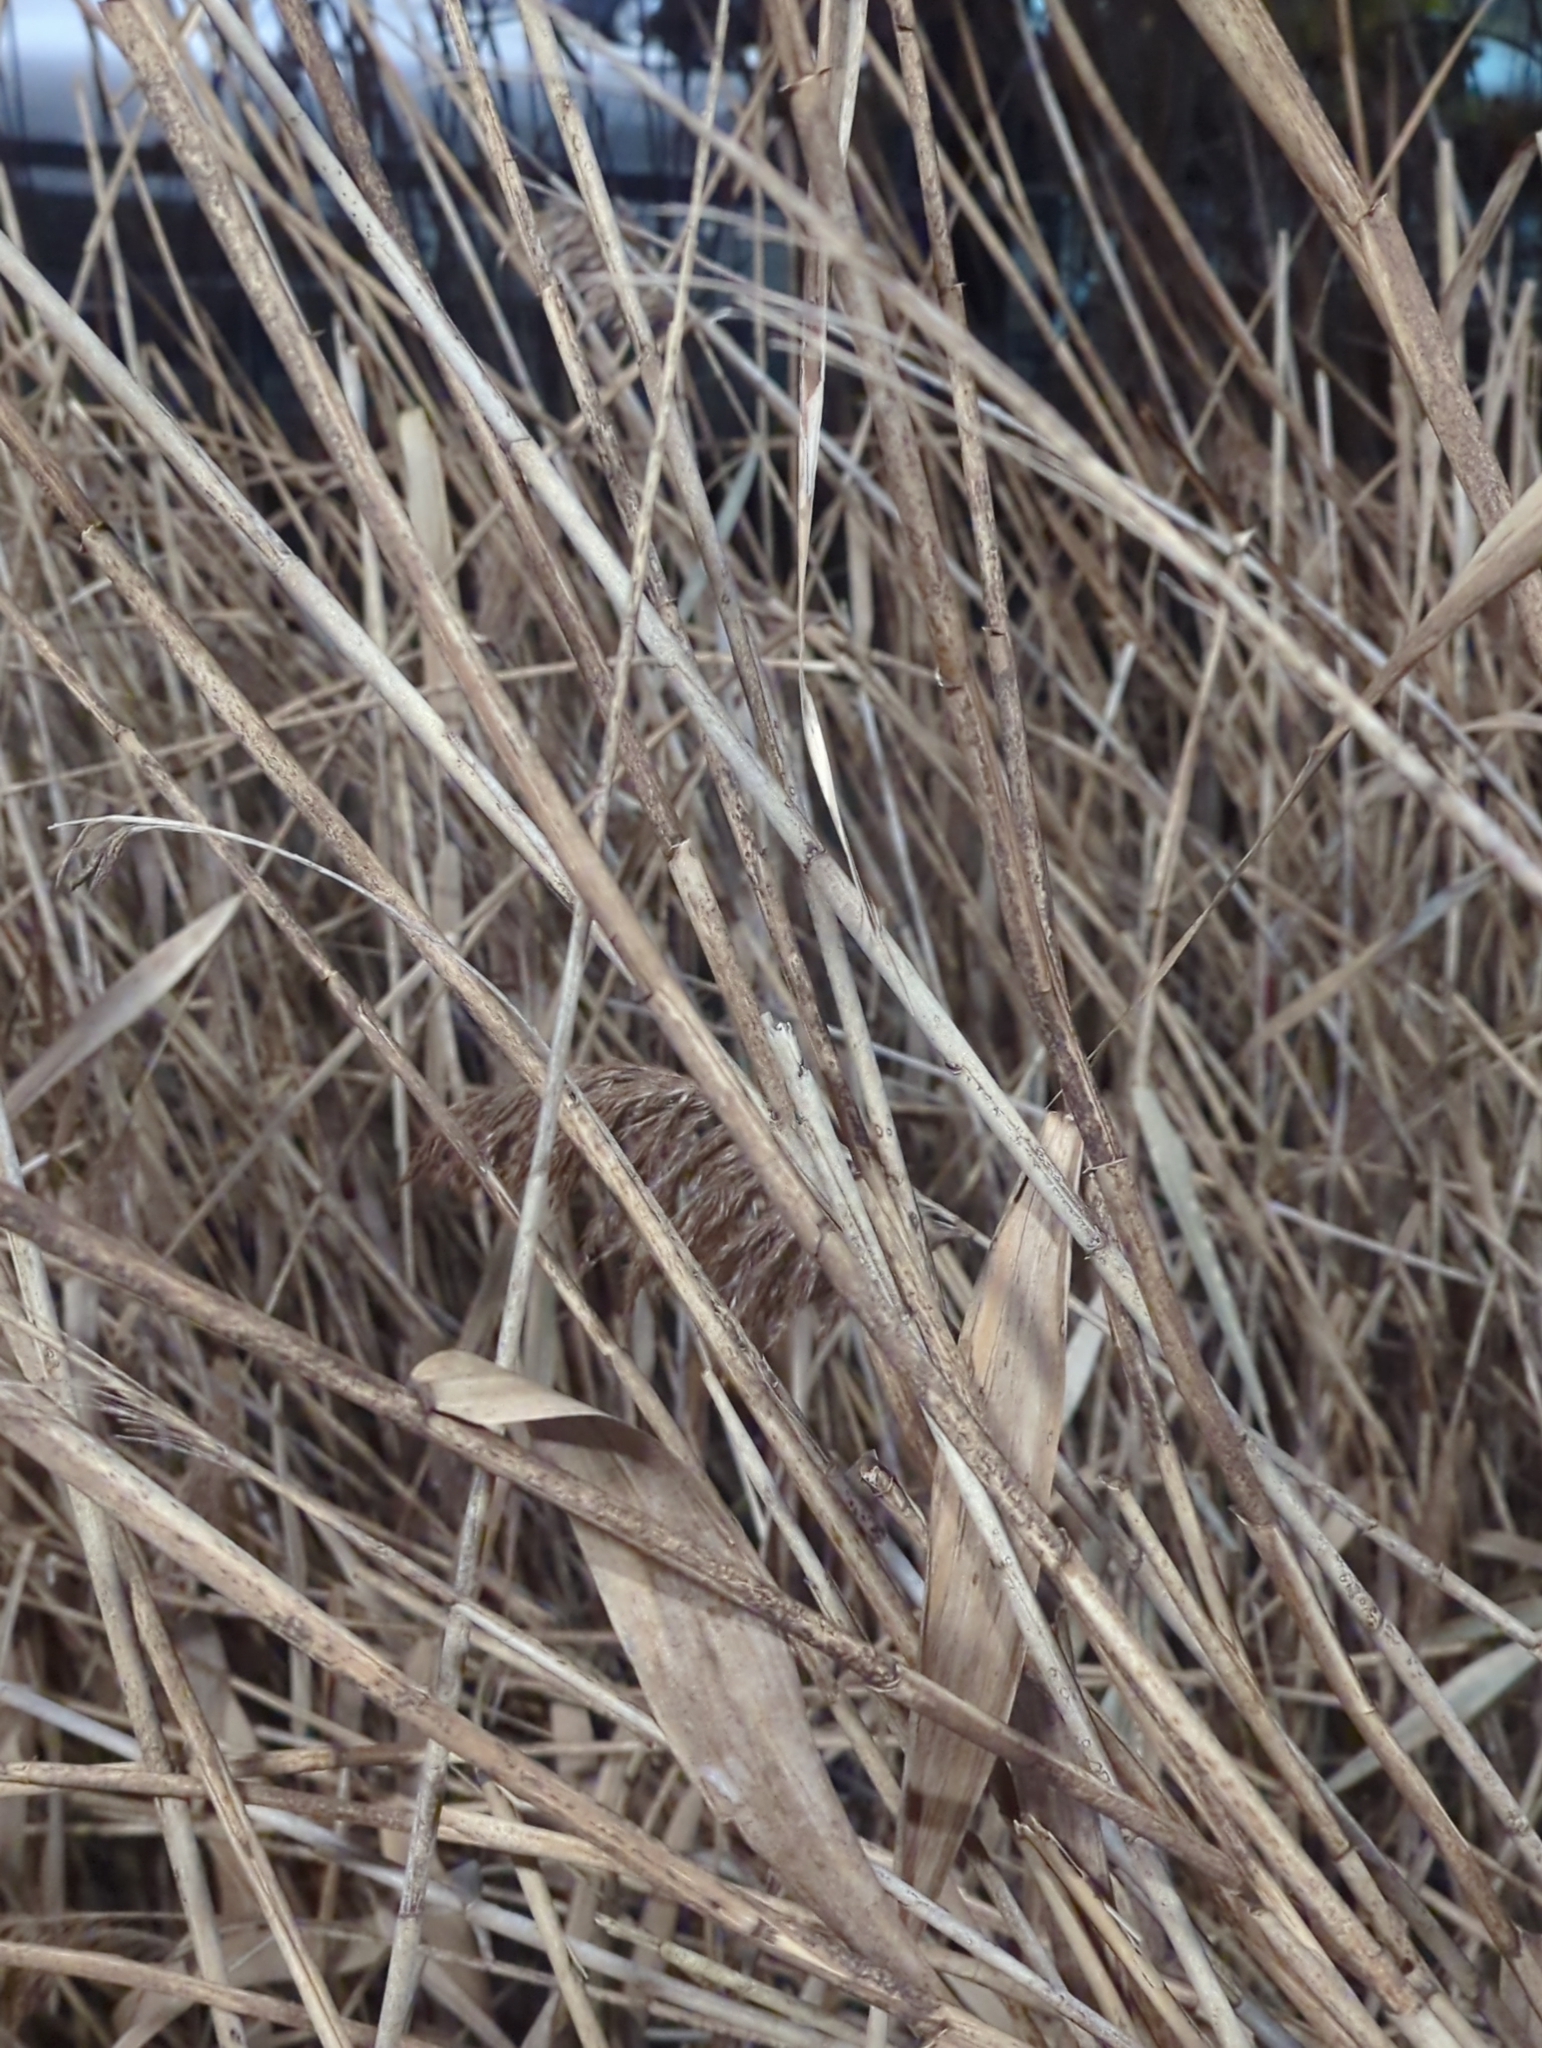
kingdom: Plantae
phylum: Tracheophyta
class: Liliopsida
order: Poales
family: Poaceae
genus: Phragmites
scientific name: Phragmites australis
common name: Common reed
